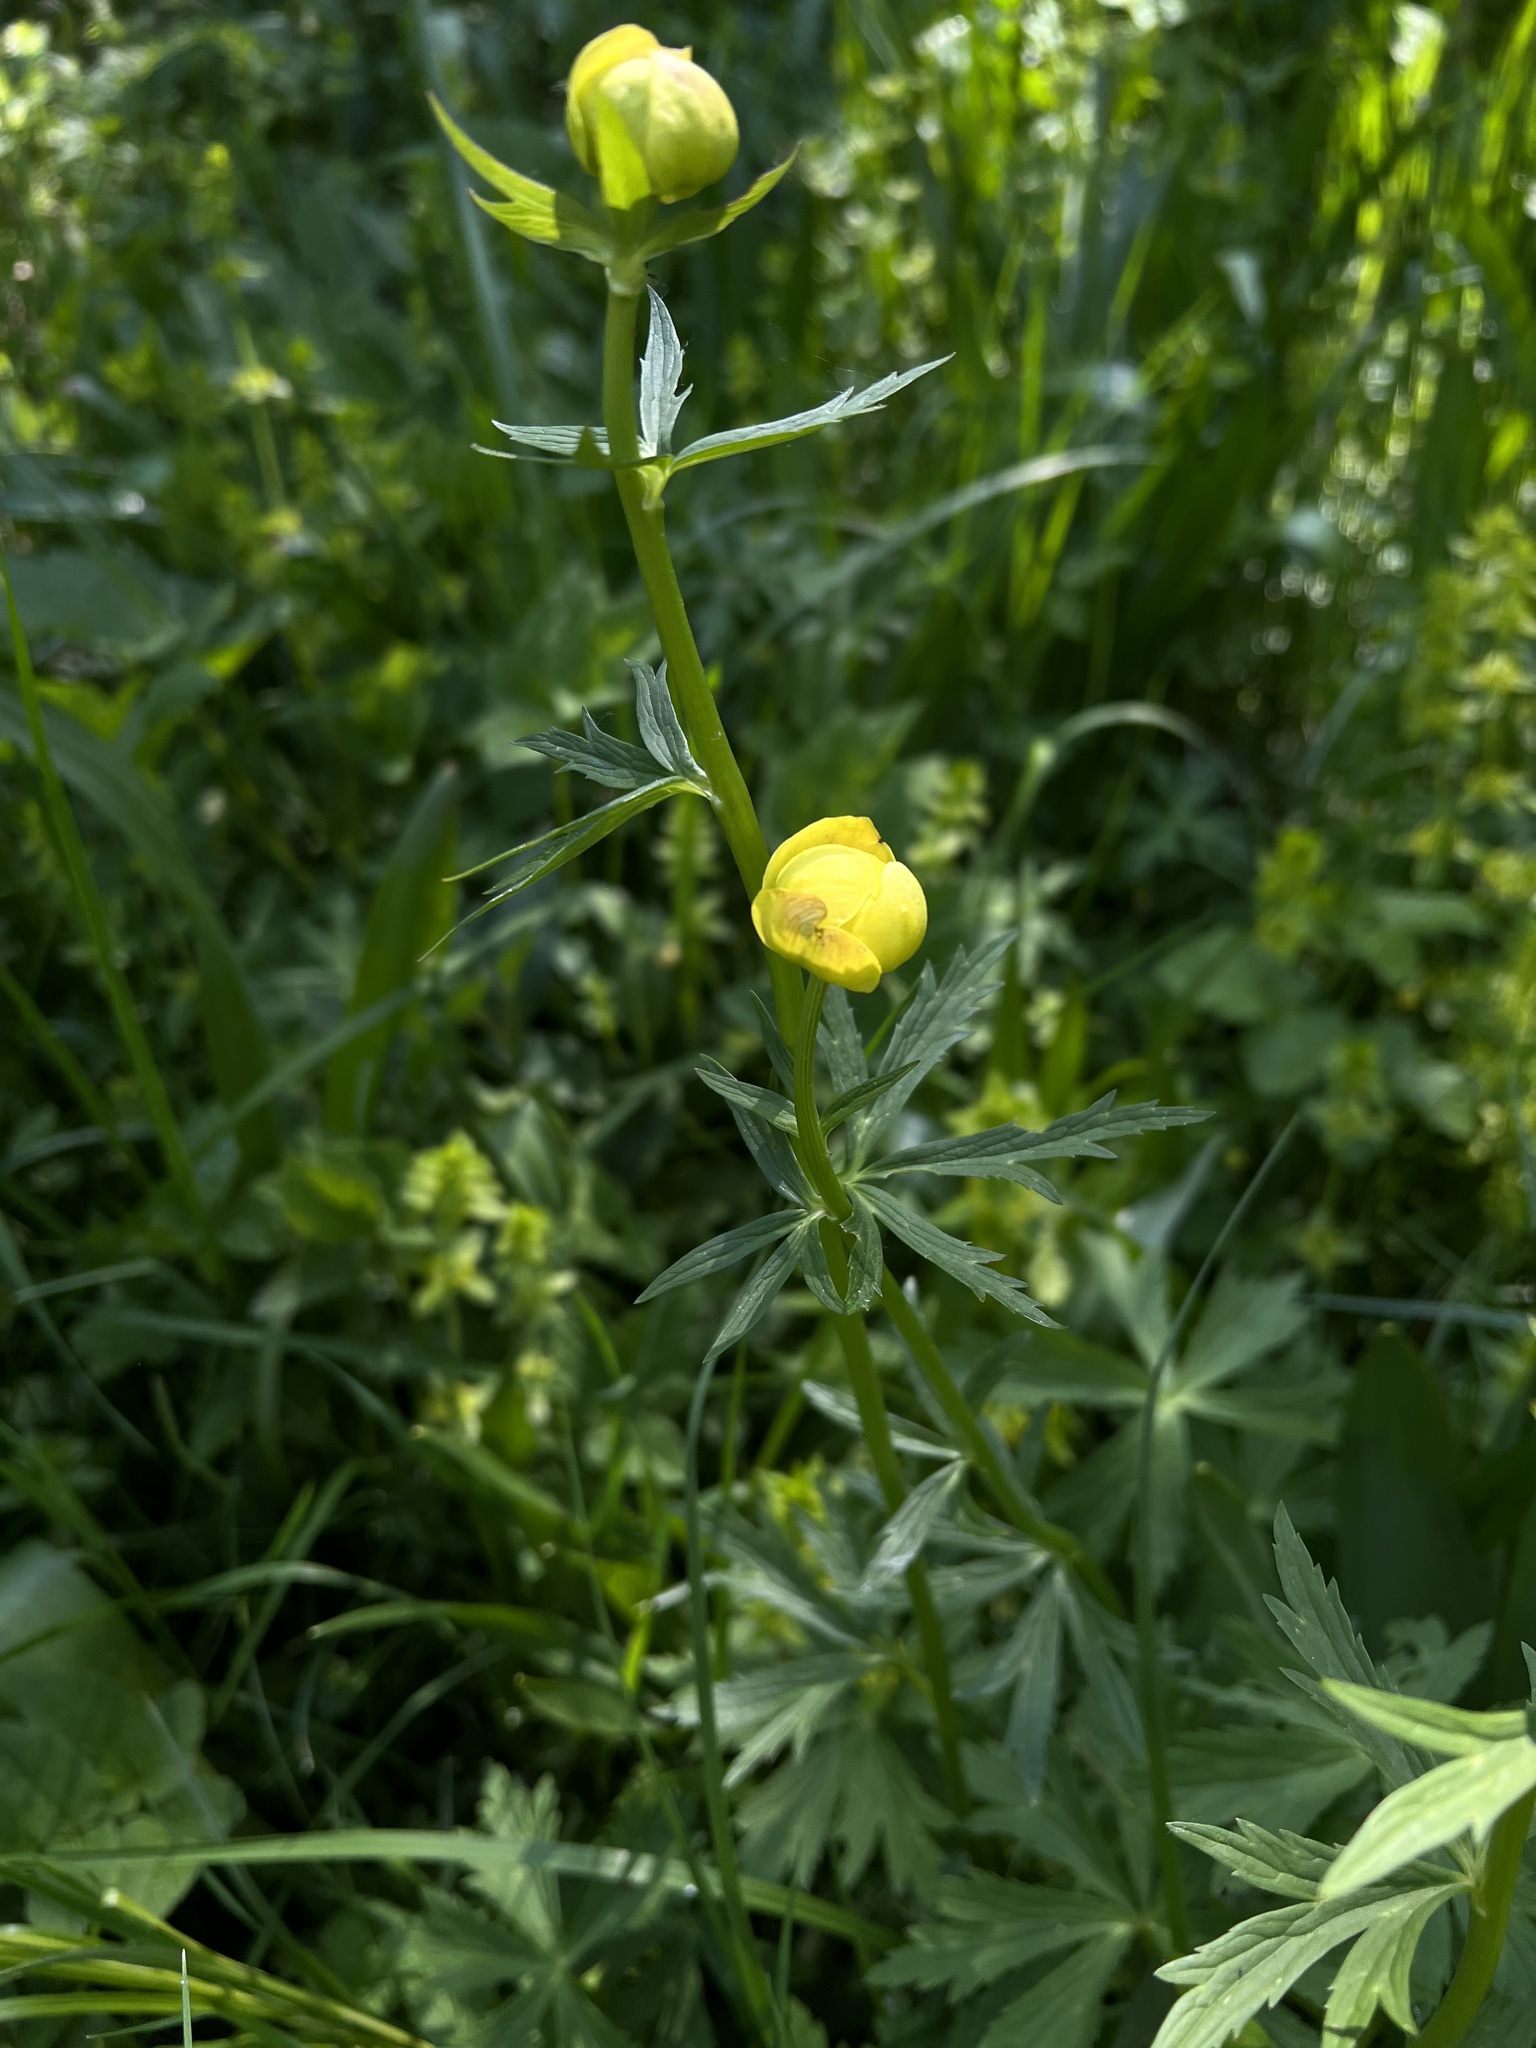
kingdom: Plantae
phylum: Tracheophyta
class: Magnoliopsida
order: Ranunculales
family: Ranunculaceae
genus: Trollius
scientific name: Trollius europaeus
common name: European globeflower
